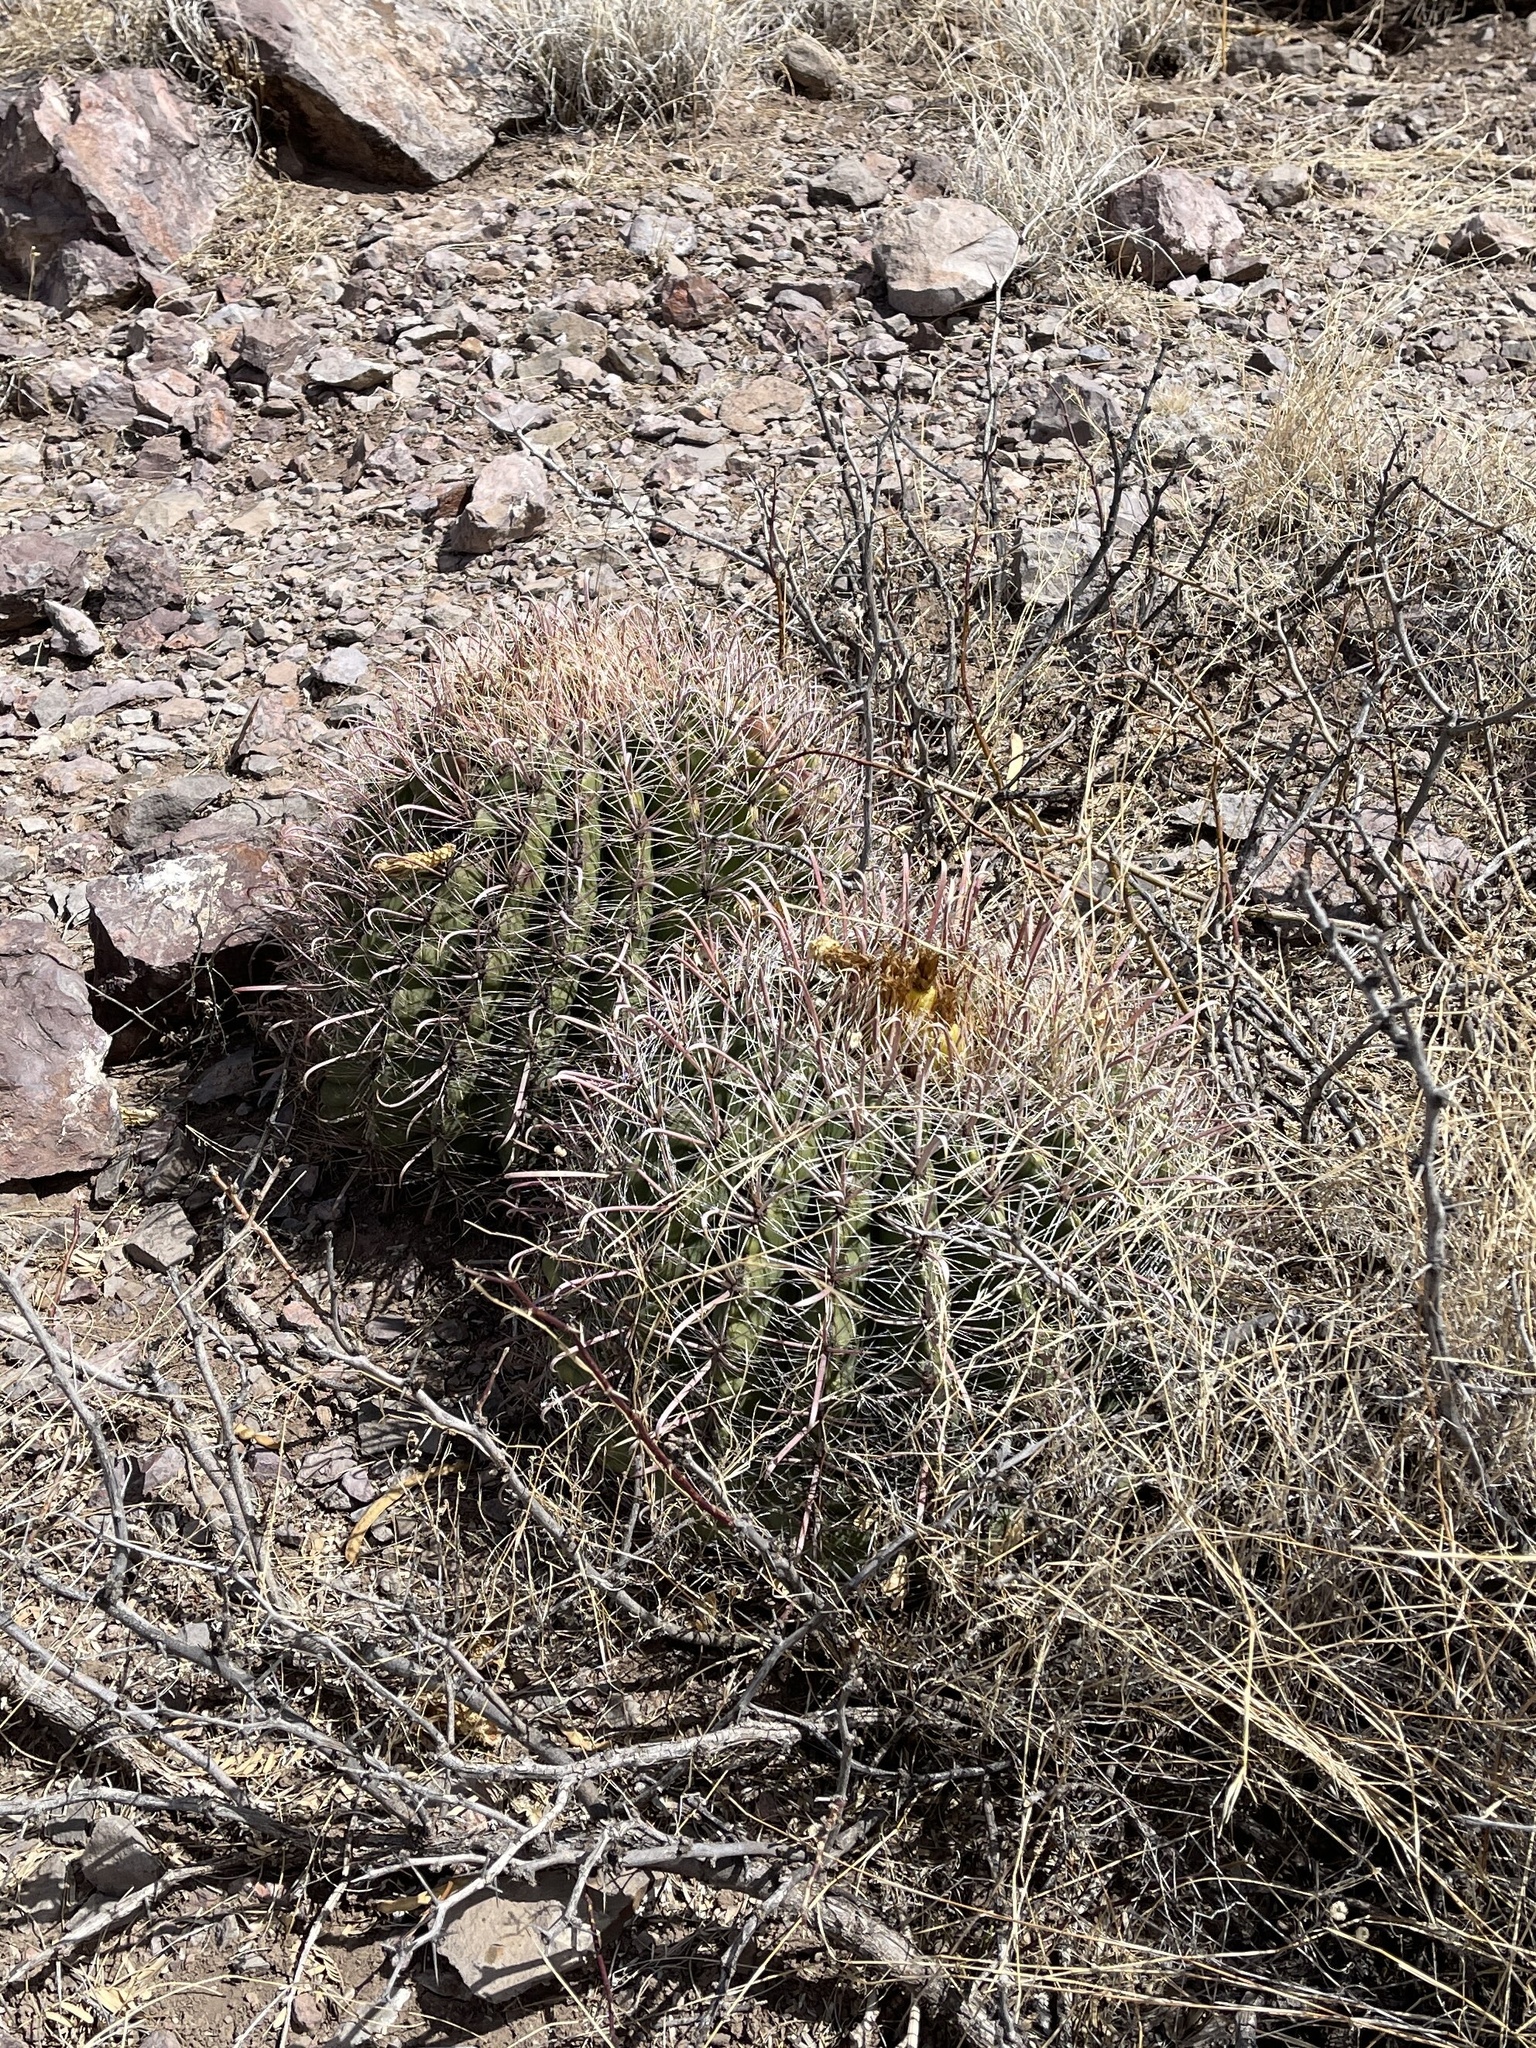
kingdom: Plantae
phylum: Tracheophyta
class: Magnoliopsida
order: Caryophyllales
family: Cactaceae
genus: Ferocactus
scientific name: Ferocactus wislizeni
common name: Candy barrel cactus
